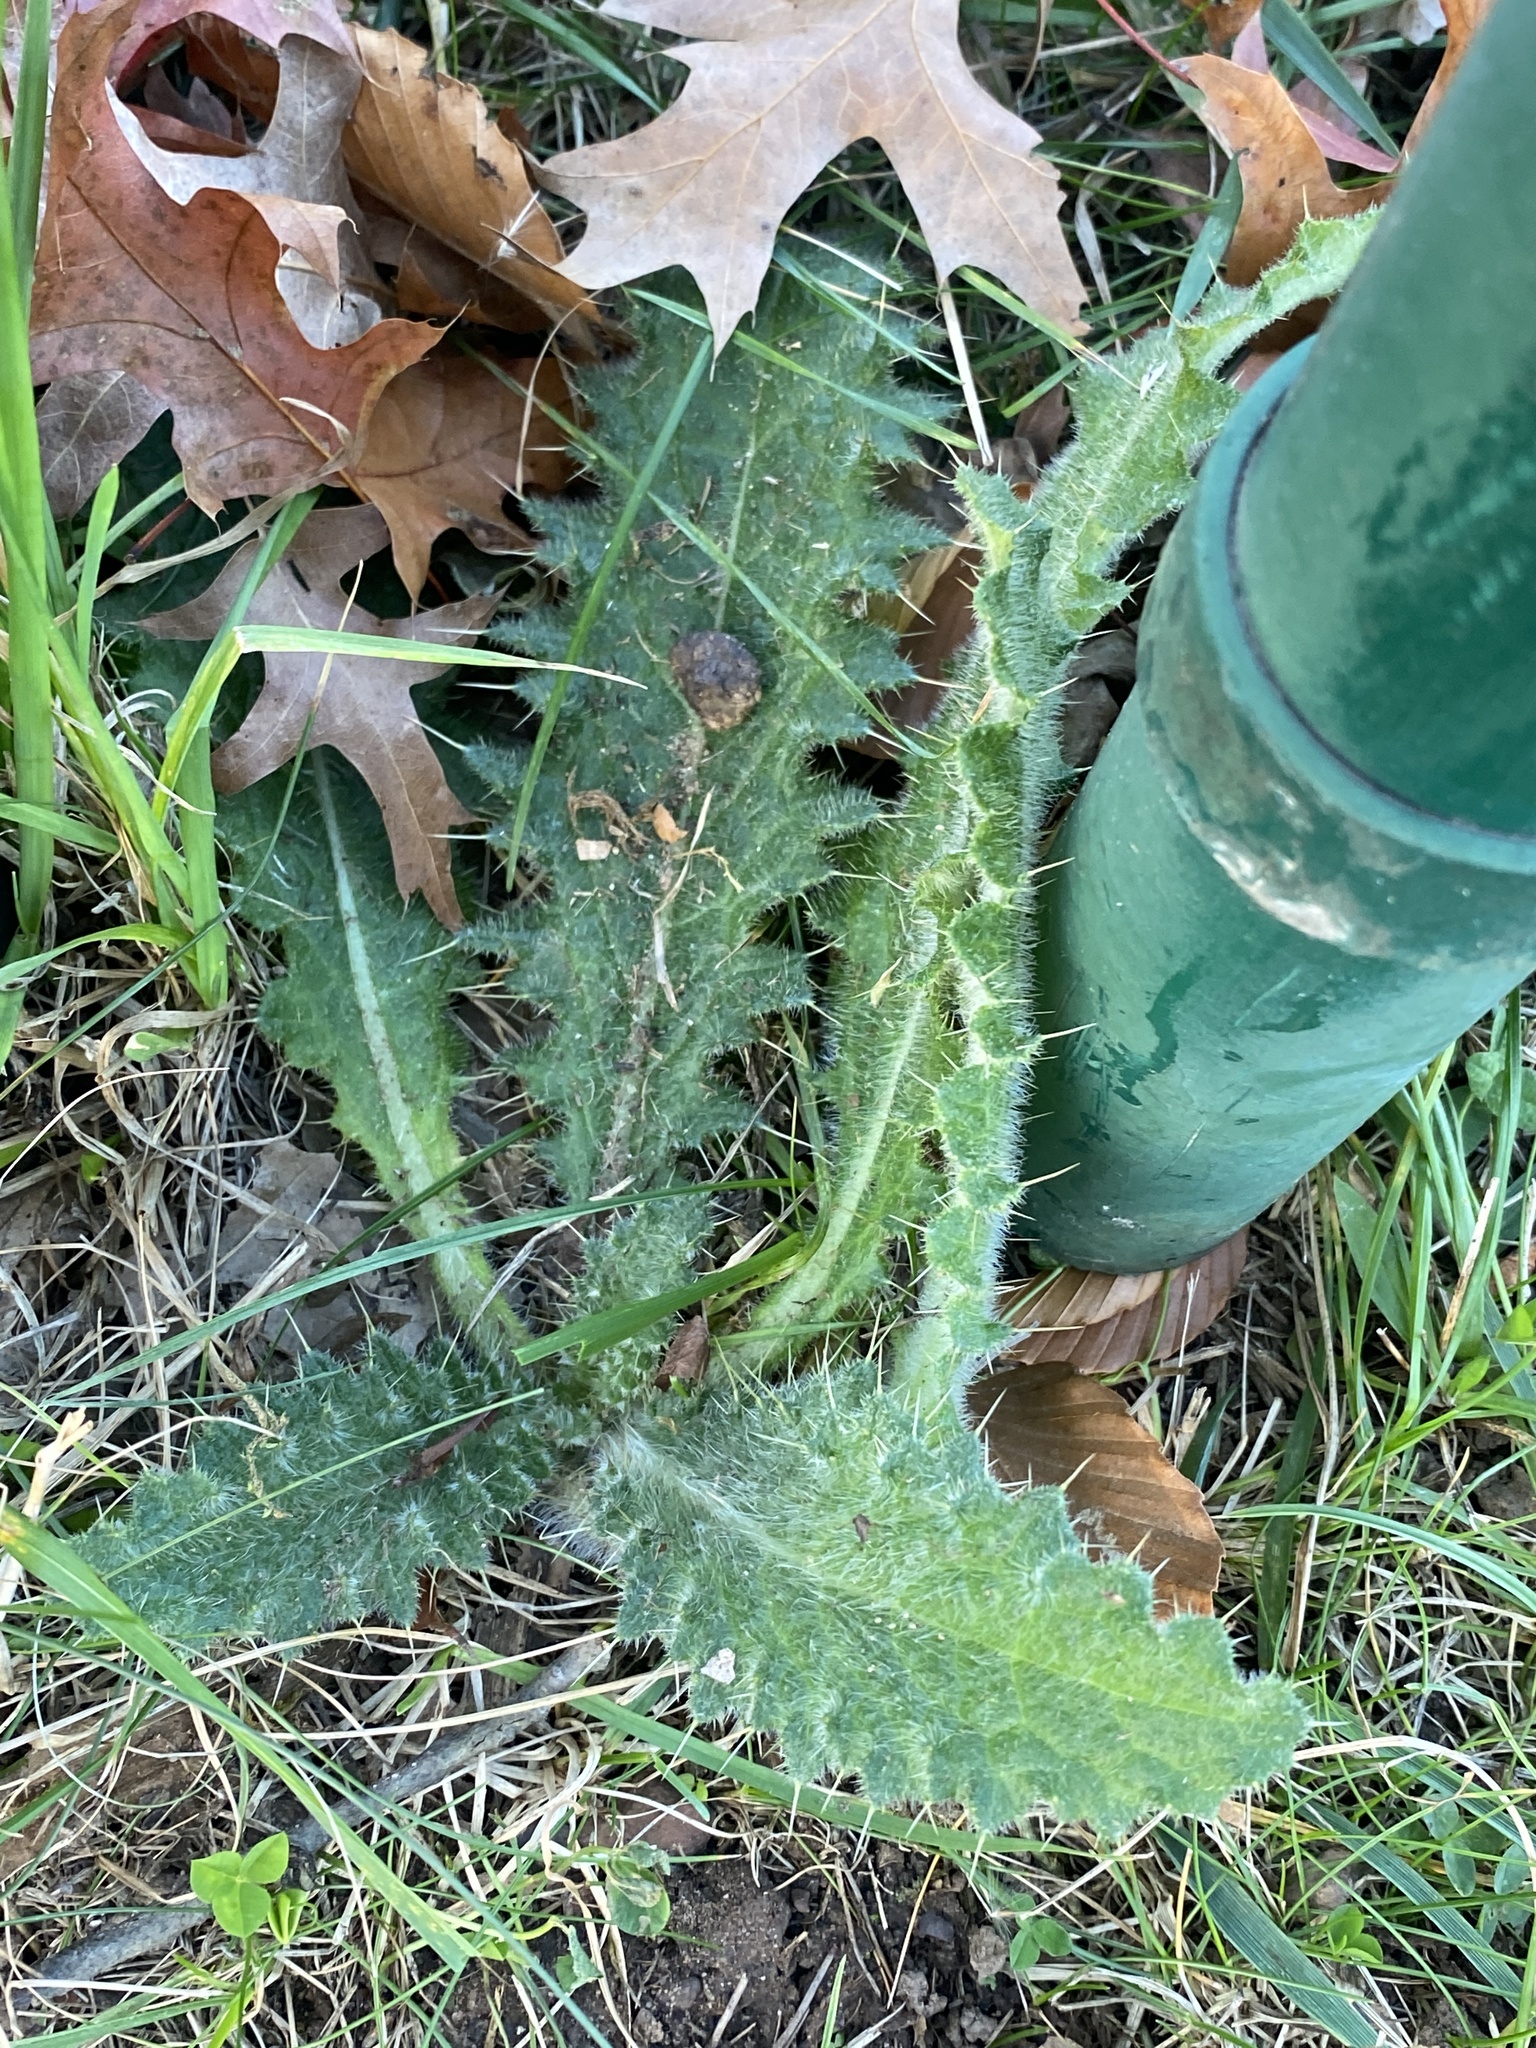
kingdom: Plantae
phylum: Tracheophyta
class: Magnoliopsida
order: Asterales
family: Asteraceae
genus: Cirsium
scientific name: Cirsium vulgare
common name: Bull thistle
